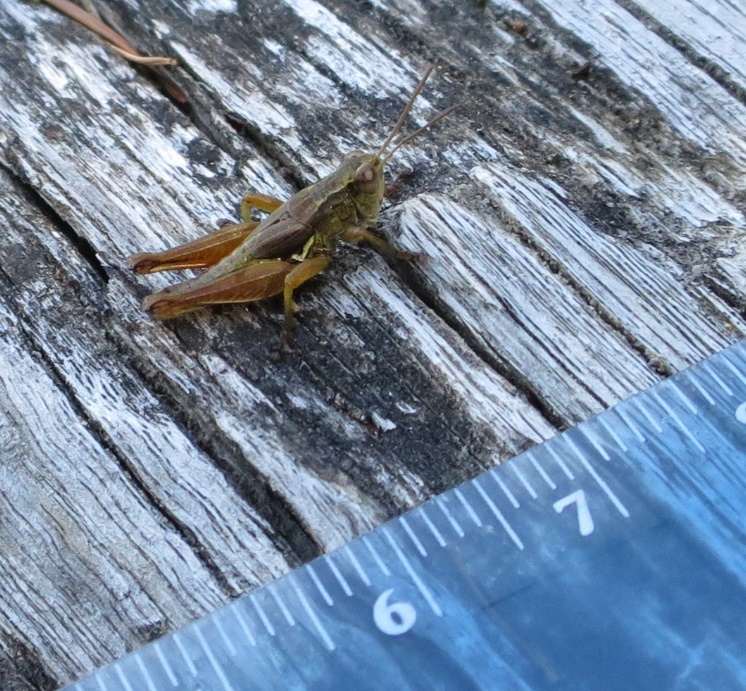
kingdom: Animalia
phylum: Arthropoda
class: Insecta
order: Orthoptera
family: Acrididae
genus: Phaulacridium
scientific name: Phaulacridium marginale
